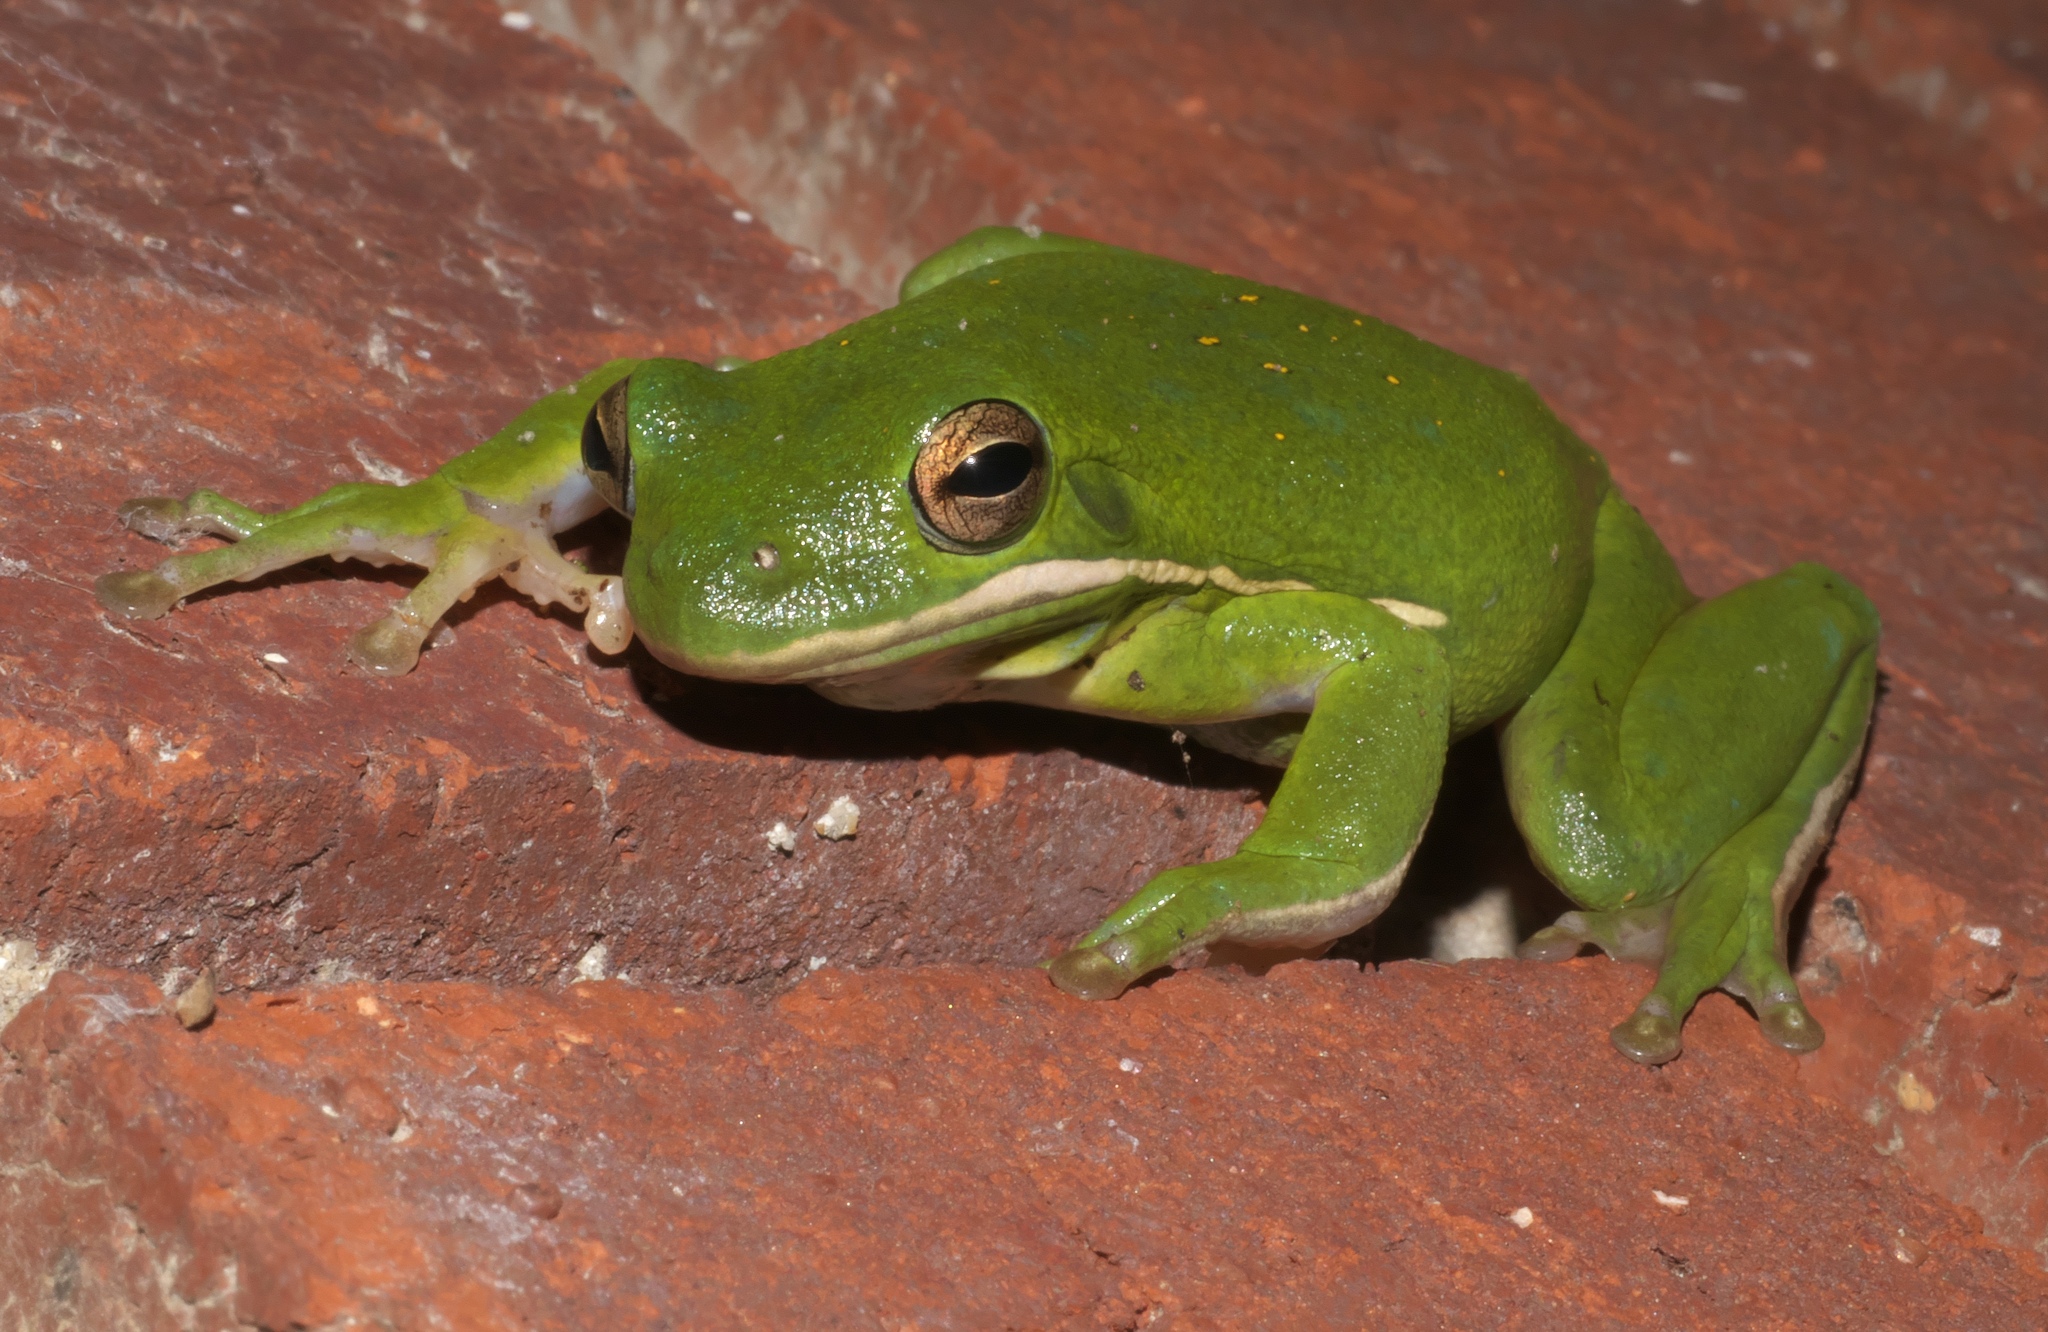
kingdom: Animalia
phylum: Chordata
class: Amphibia
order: Anura
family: Hylidae
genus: Dryophytes
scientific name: Dryophytes cinereus
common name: Green treefrog
